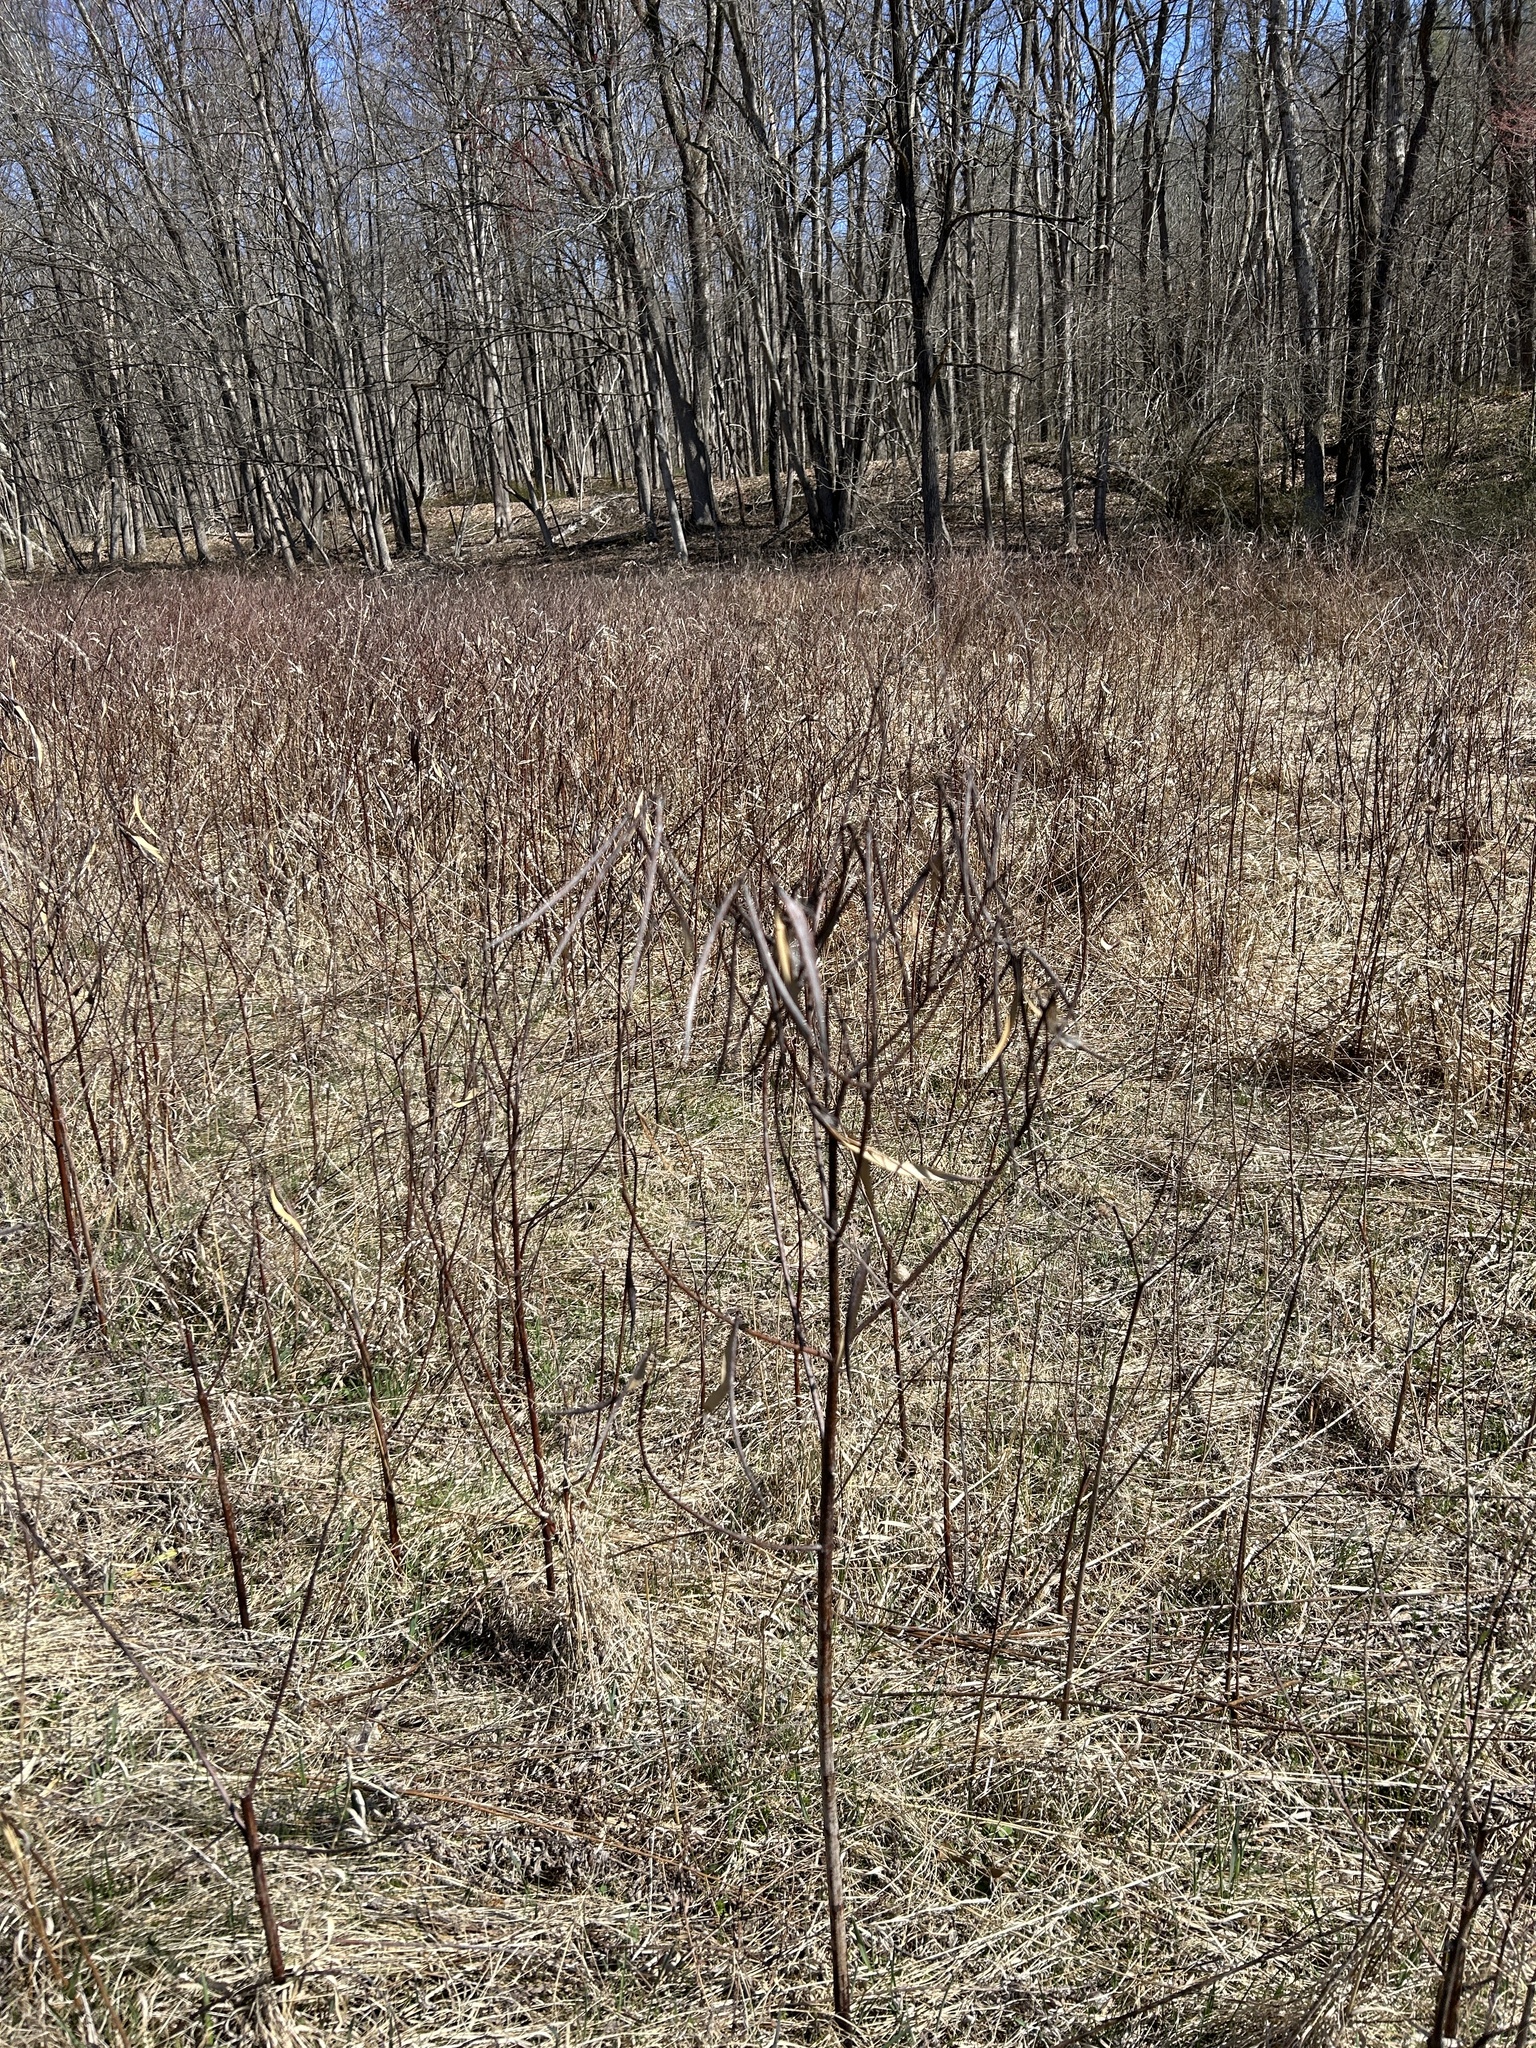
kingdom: Plantae
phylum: Tracheophyta
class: Magnoliopsida
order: Gentianales
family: Apocynaceae
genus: Apocynum
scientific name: Apocynum cannabinum
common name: Hemp dogbane
